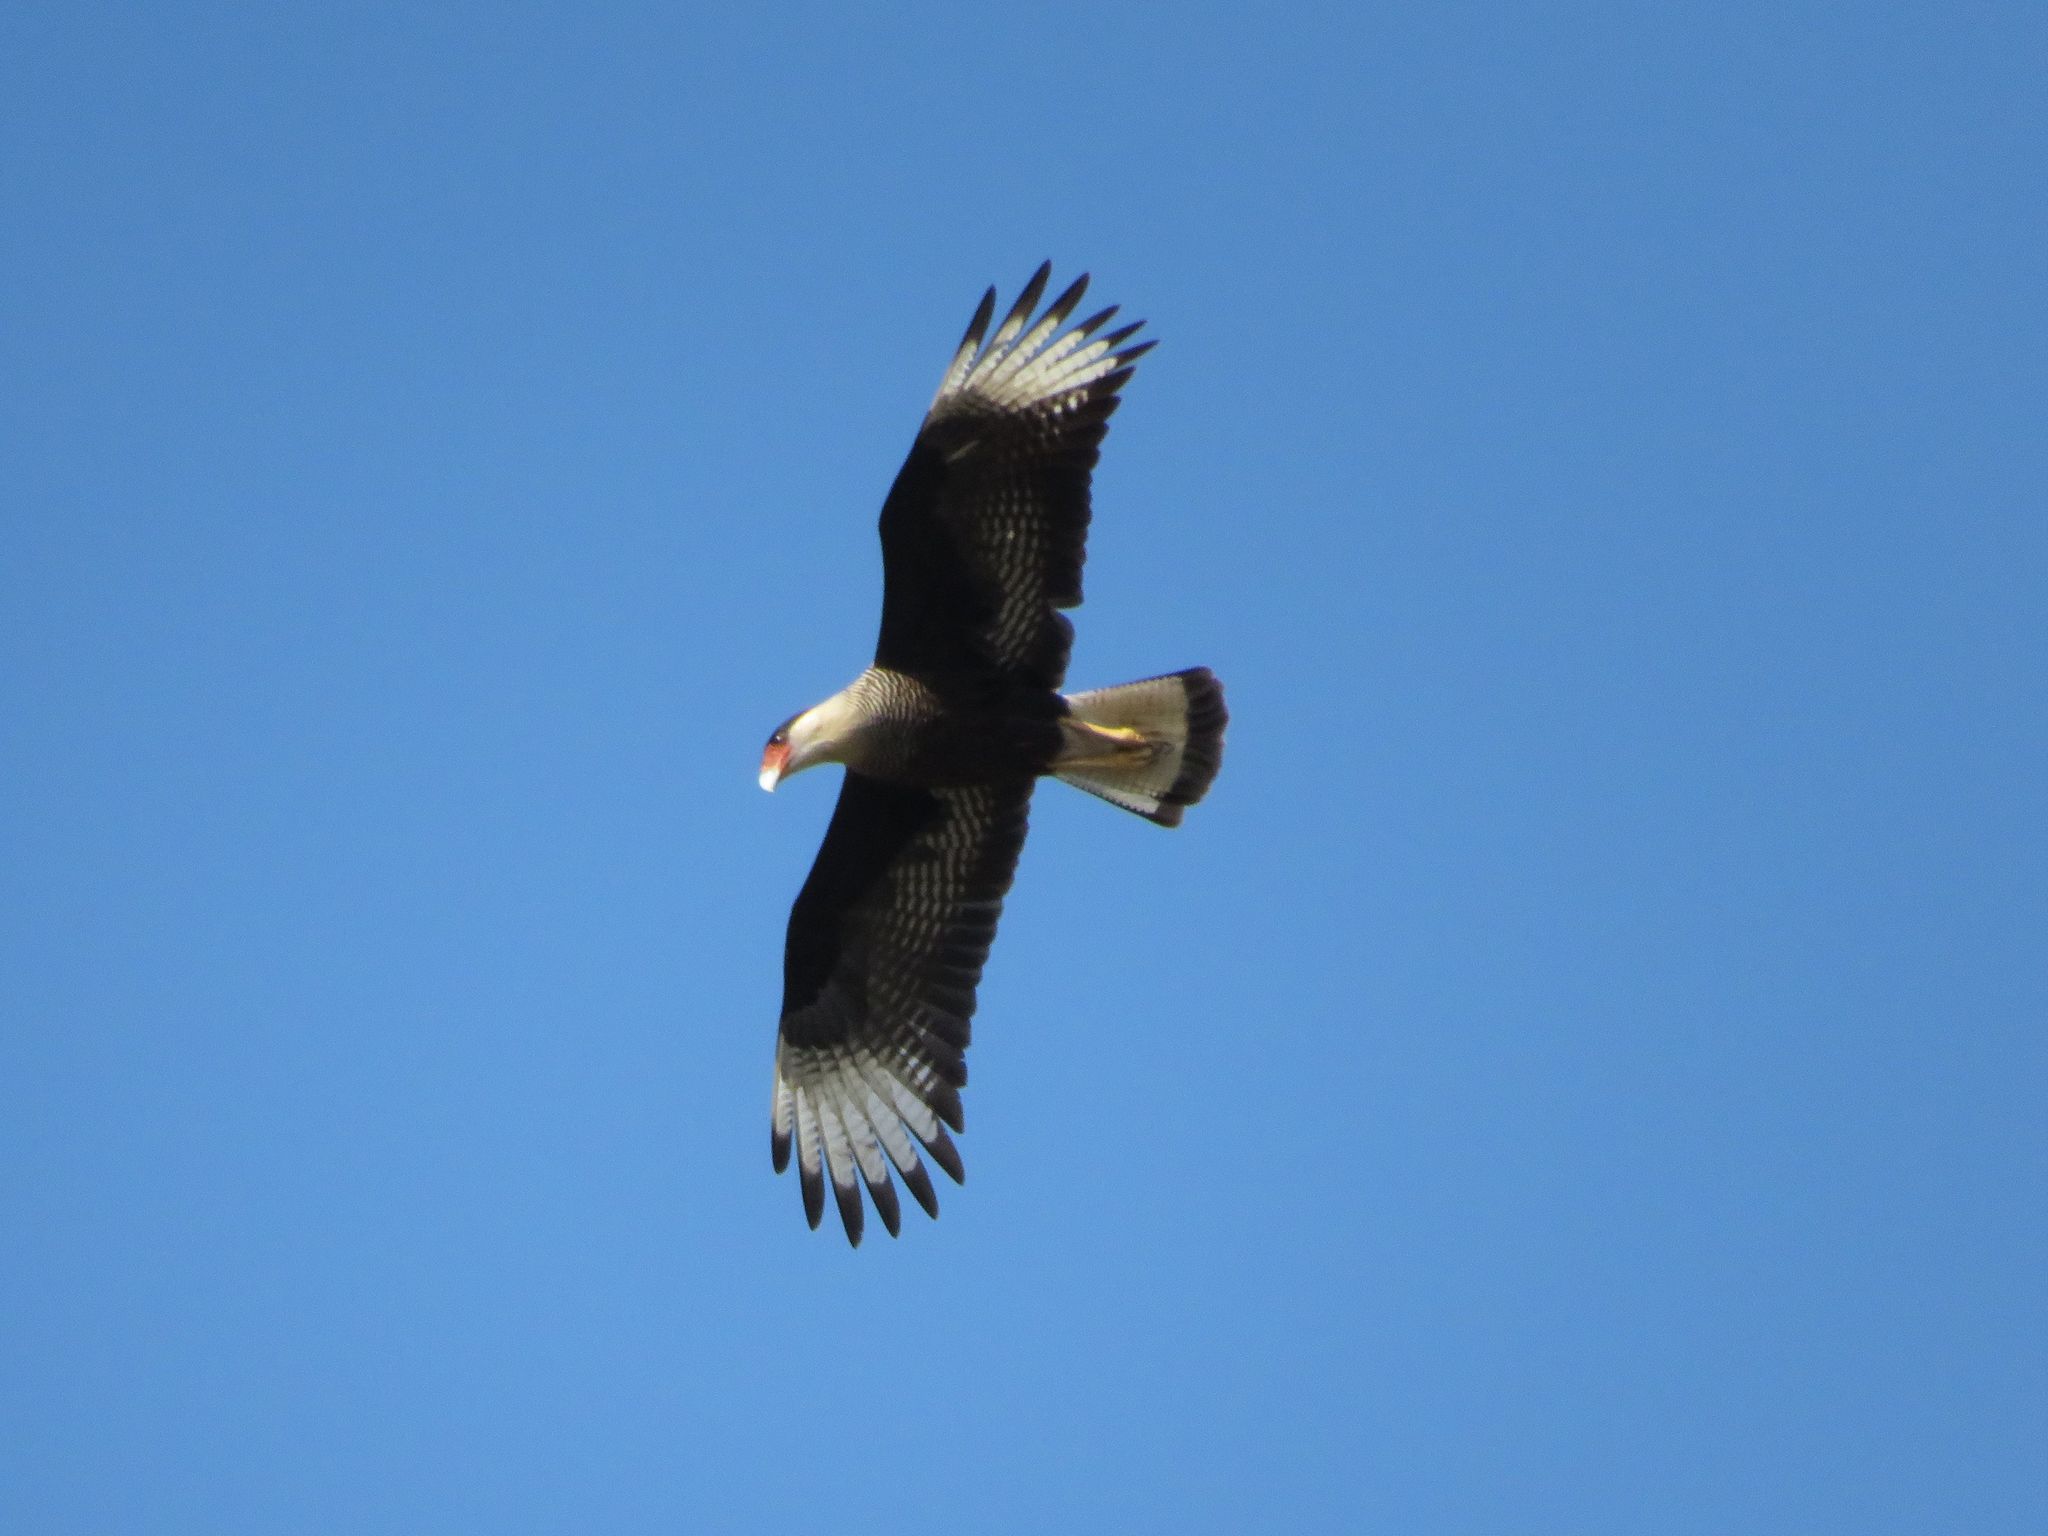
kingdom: Animalia
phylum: Chordata
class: Aves
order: Falconiformes
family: Falconidae
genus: Caracara
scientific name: Caracara plancus
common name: Southern caracara
